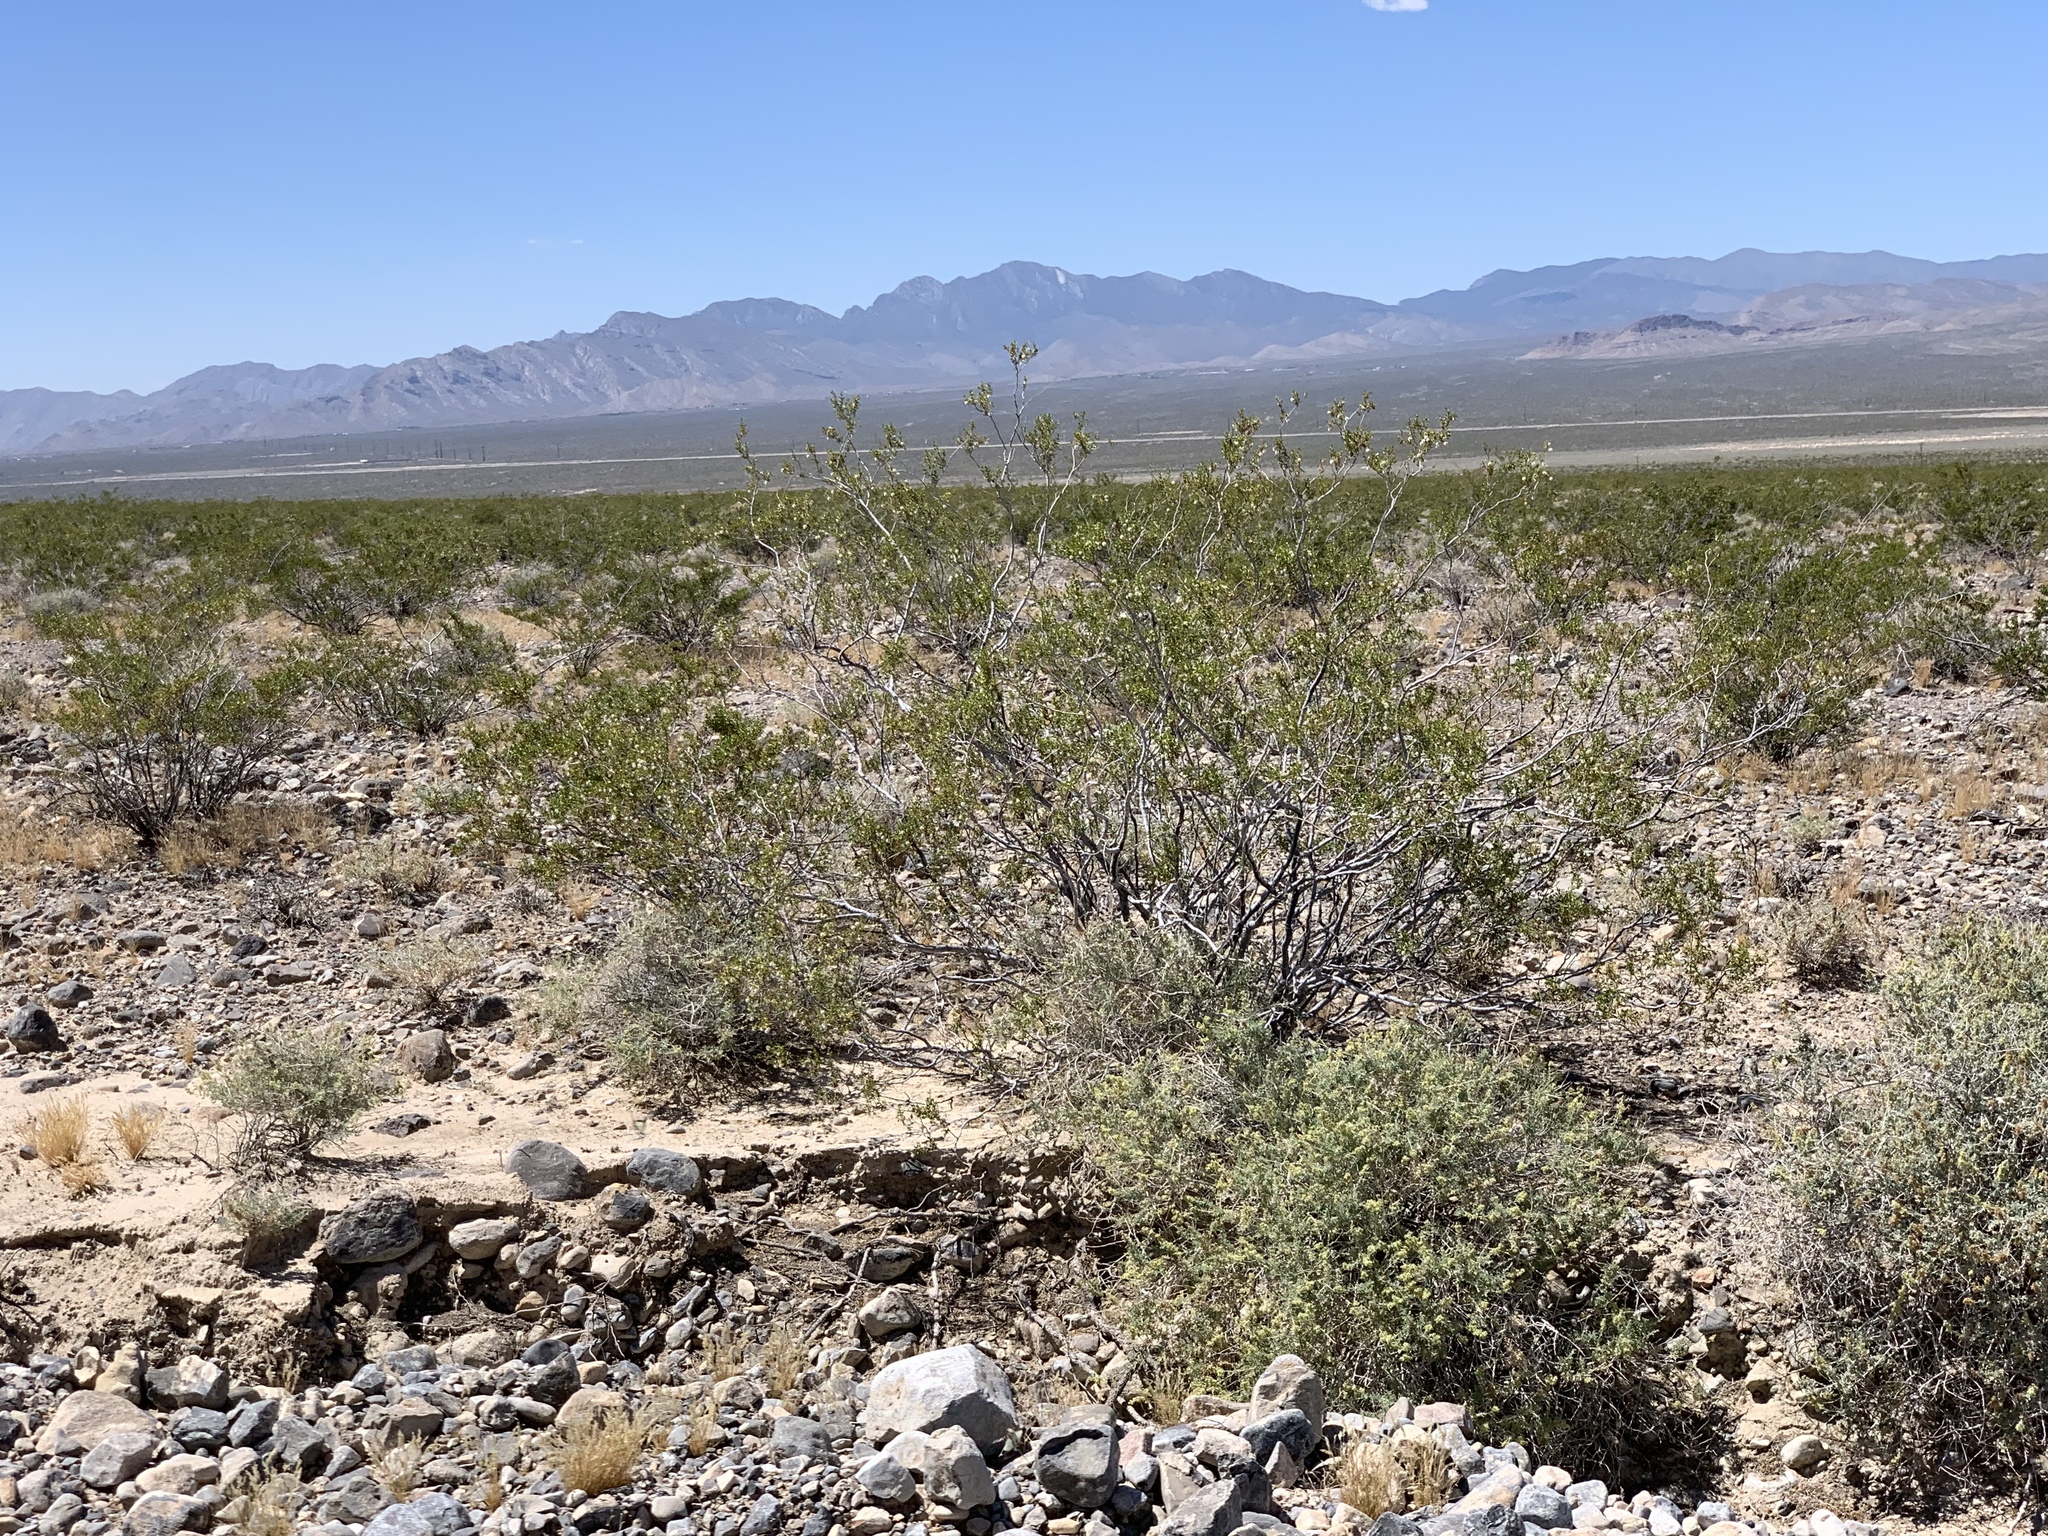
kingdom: Plantae
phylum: Tracheophyta
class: Magnoliopsida
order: Zygophyllales
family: Zygophyllaceae
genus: Larrea
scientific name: Larrea tridentata
